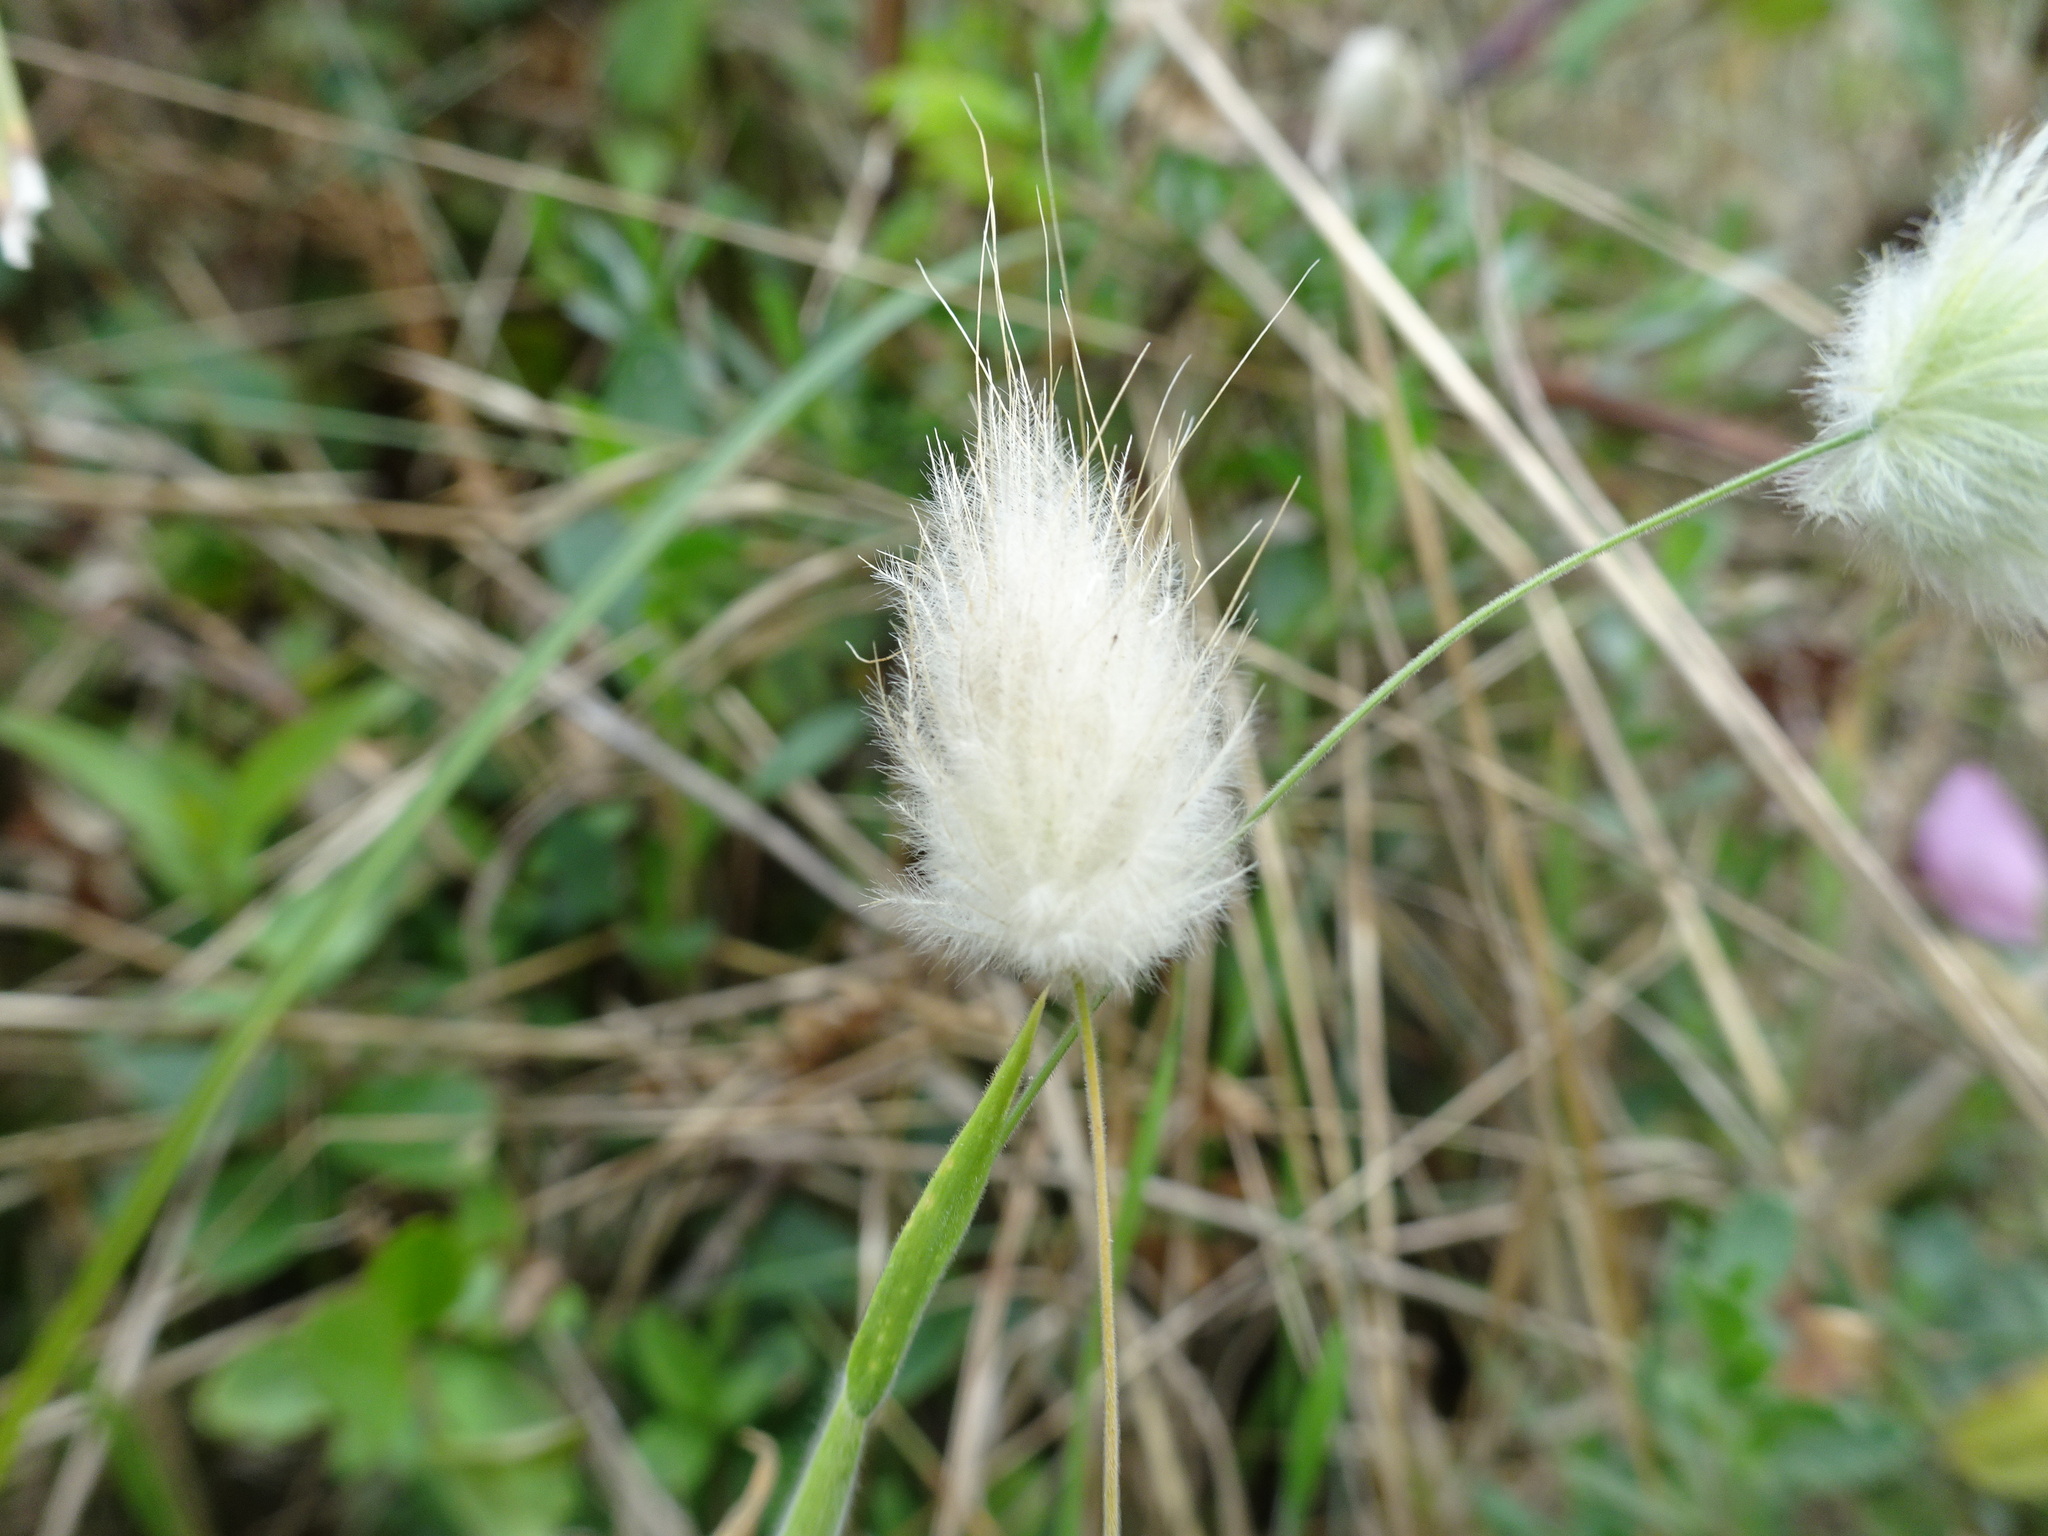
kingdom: Plantae
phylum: Tracheophyta
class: Liliopsida
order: Poales
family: Poaceae
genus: Lagurus
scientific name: Lagurus ovatus
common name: Hare's-tail
